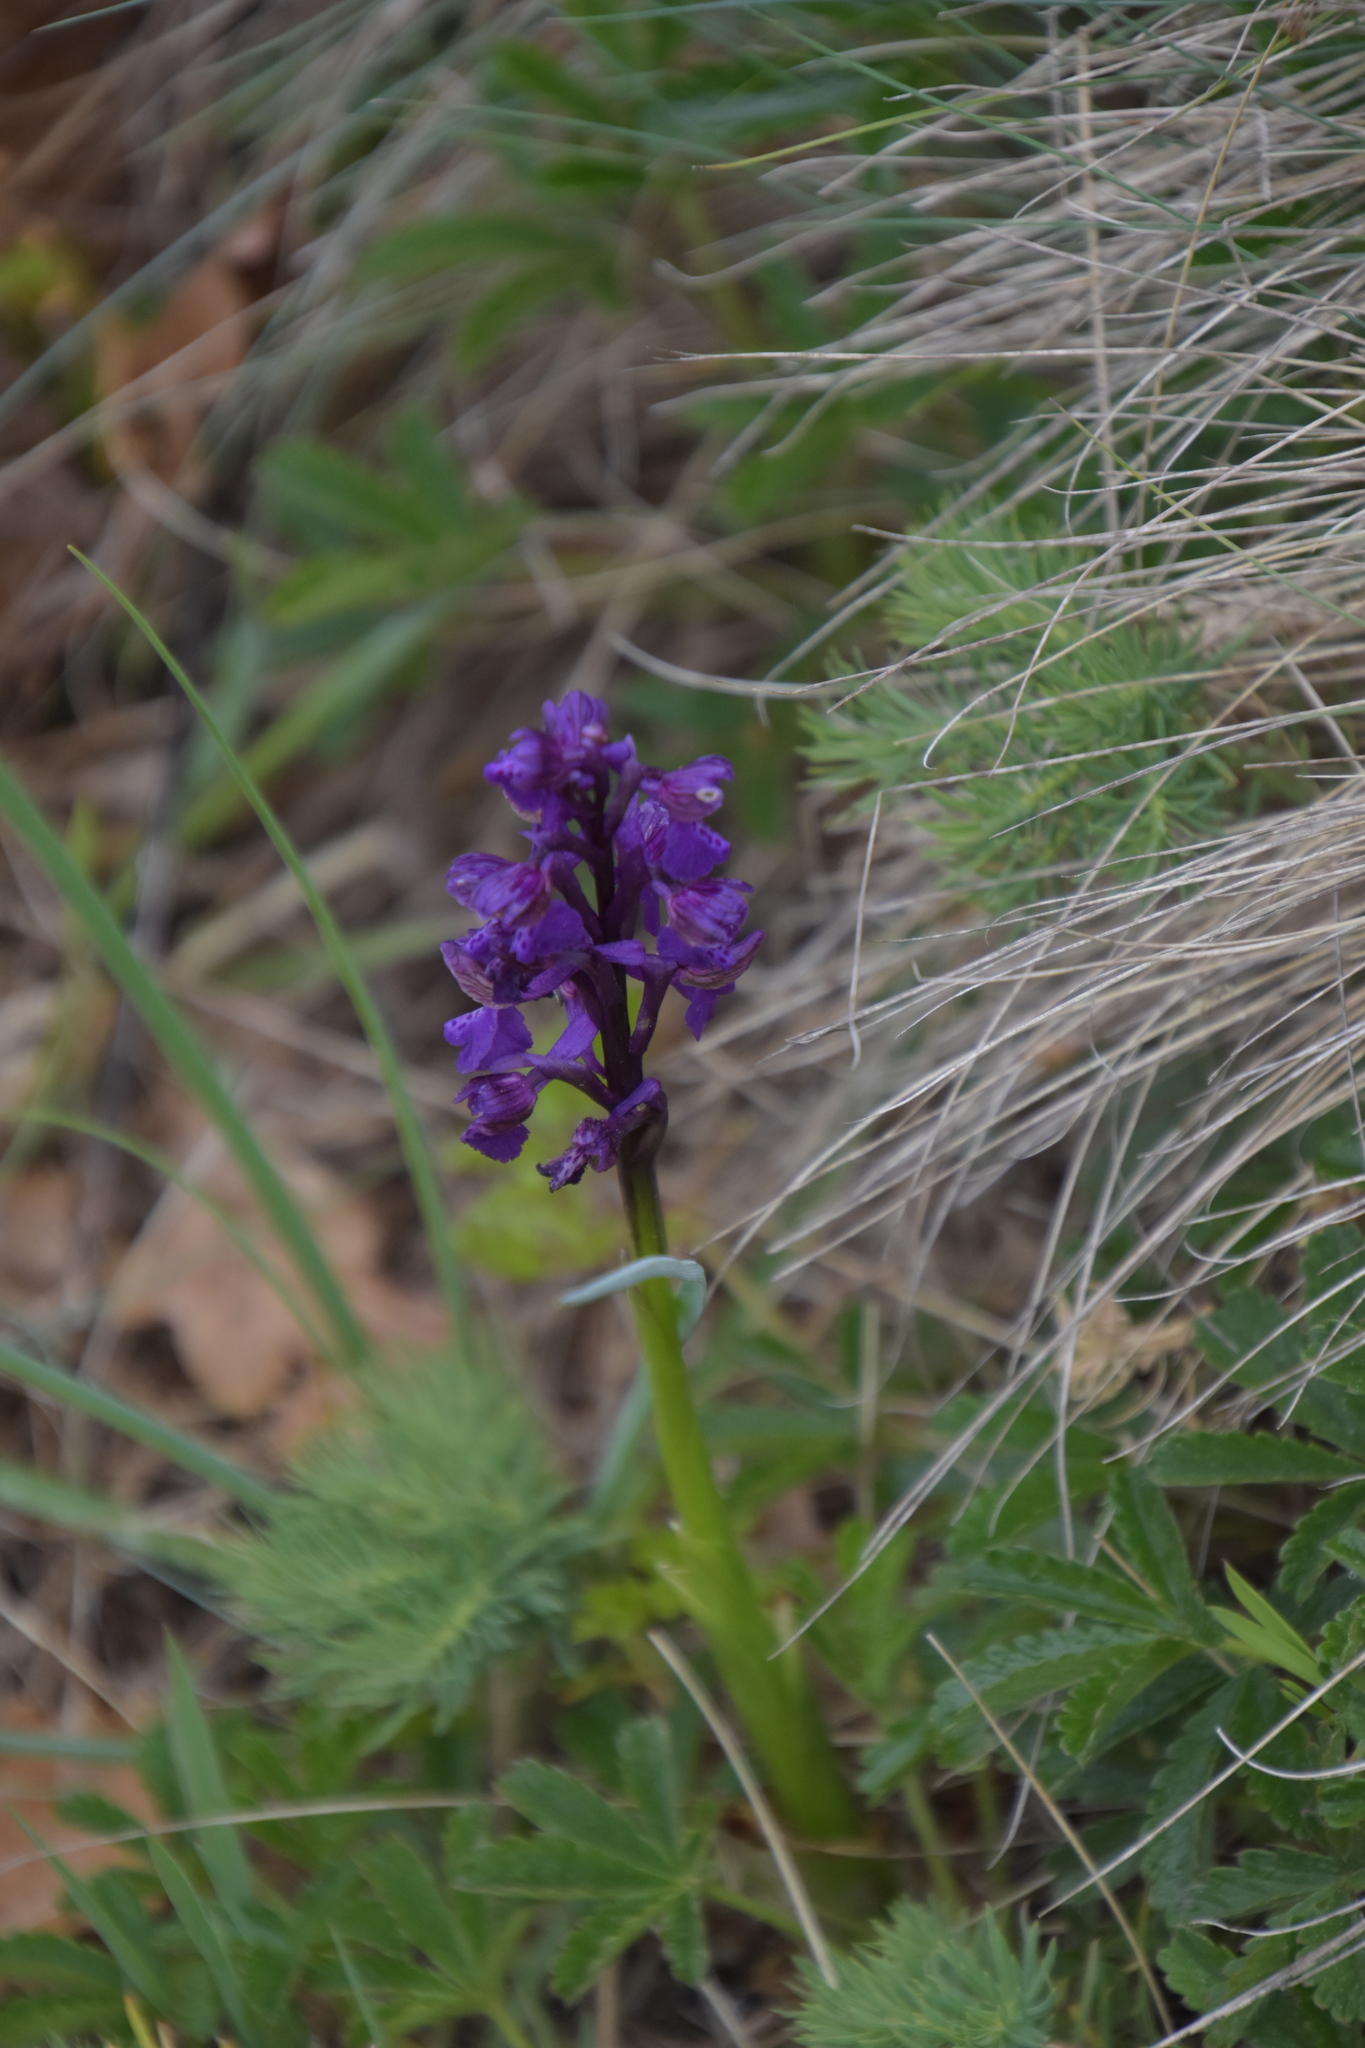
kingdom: Plantae
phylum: Tracheophyta
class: Liliopsida
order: Asparagales
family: Orchidaceae
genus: Anacamptis
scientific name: Anacamptis morio
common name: Green-winged orchid
